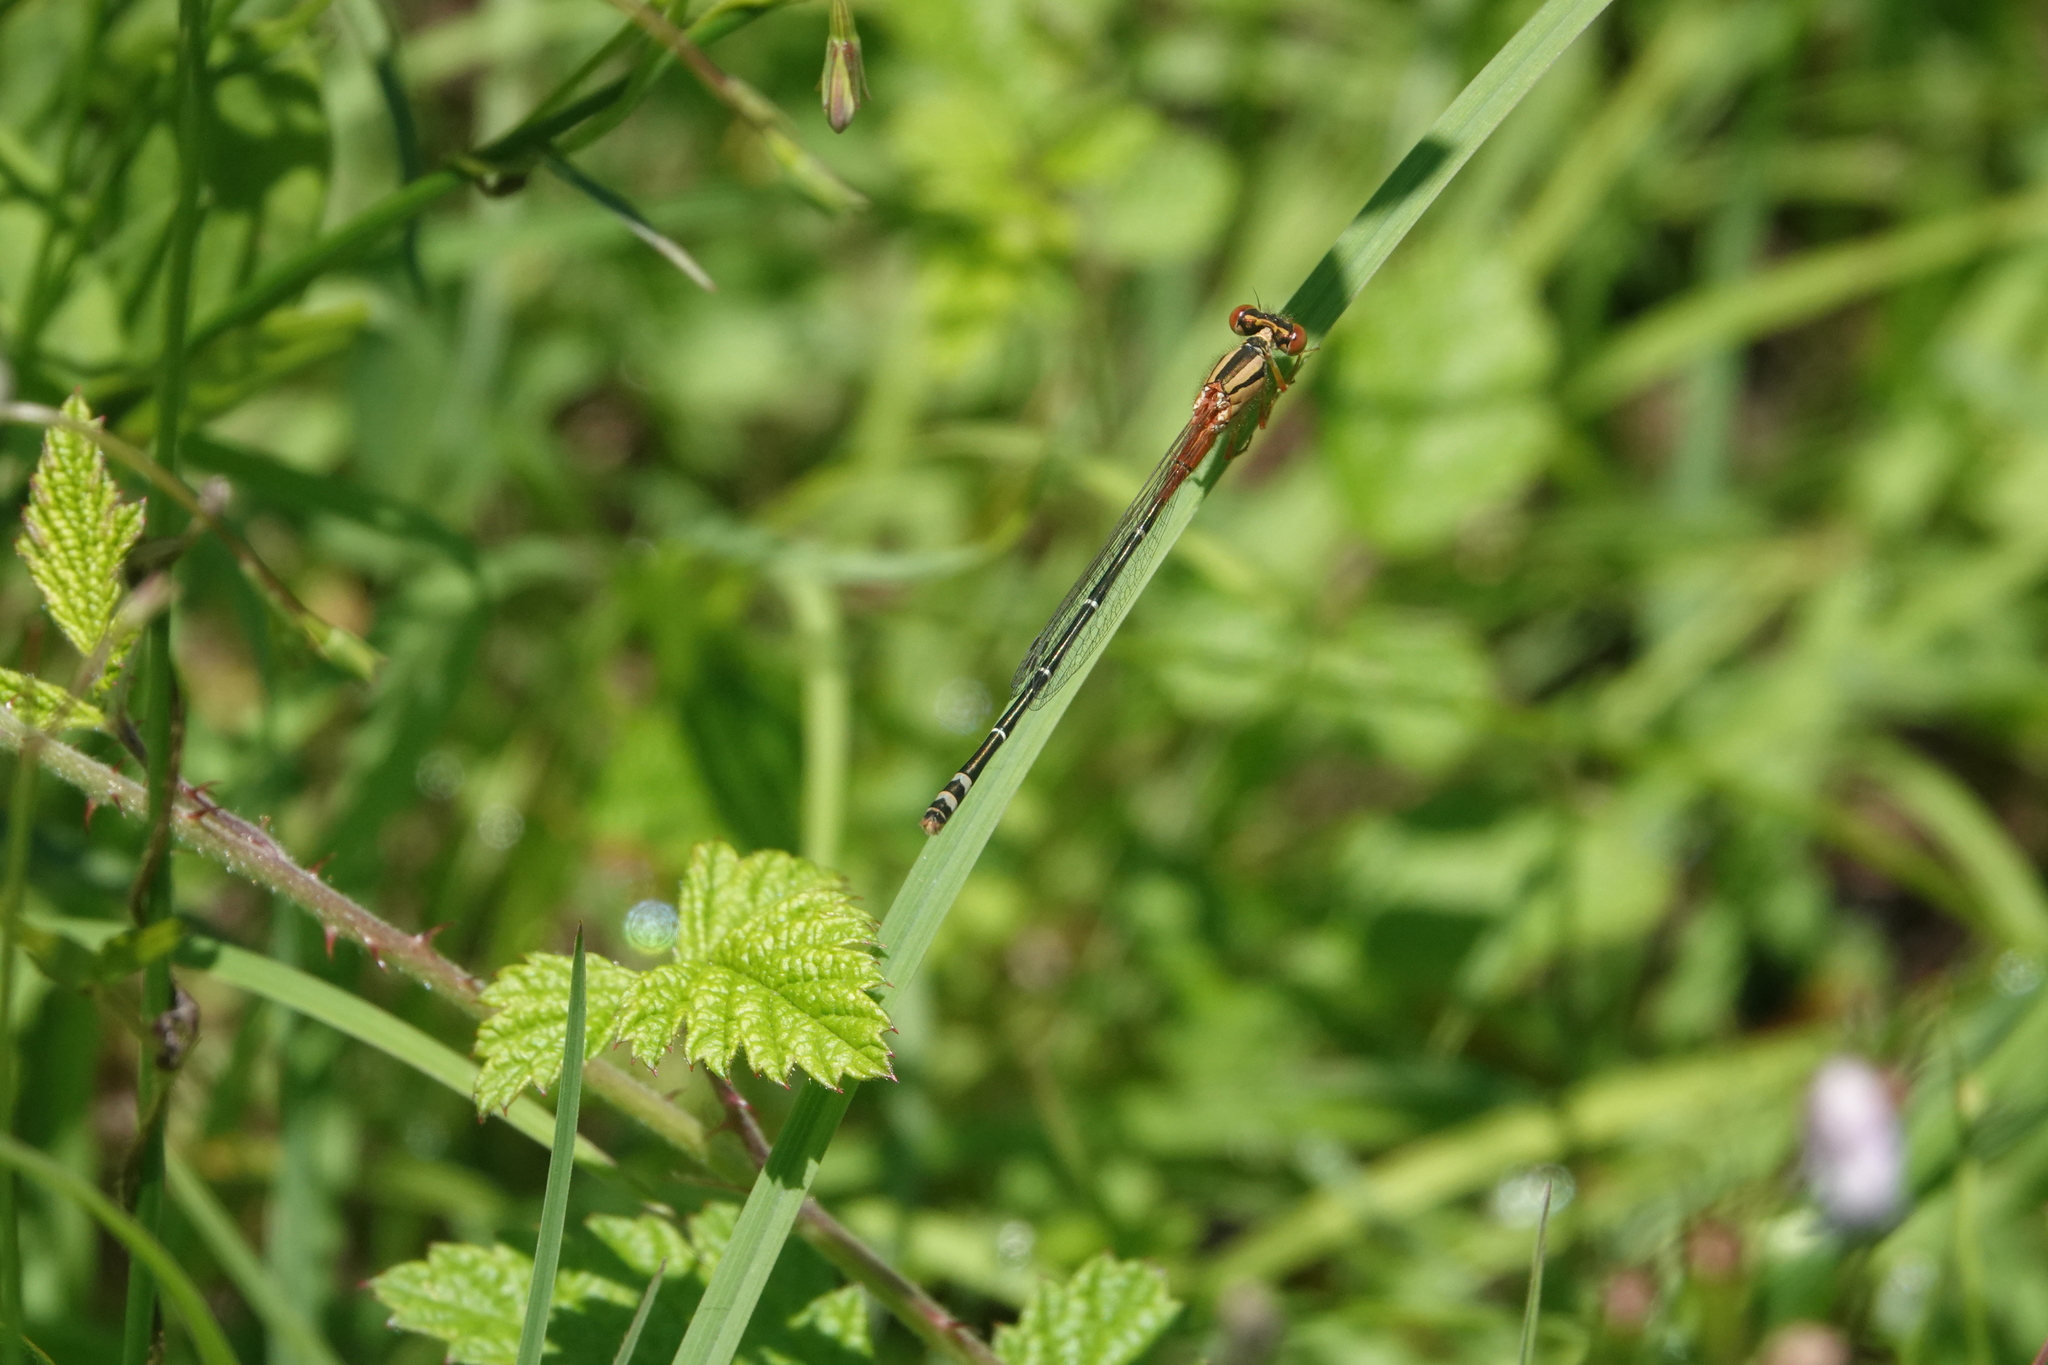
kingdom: Animalia
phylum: Arthropoda
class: Insecta
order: Odonata
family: Coenagrionidae
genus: Xanthagrion
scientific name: Xanthagrion erythroneurum
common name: Red and blue damsel
